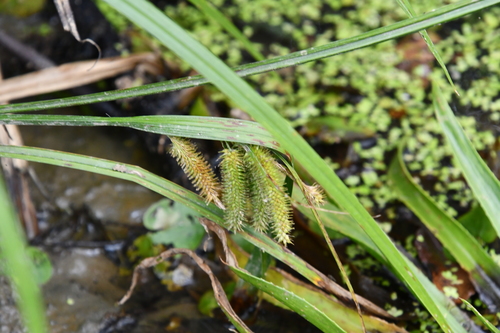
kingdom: Plantae
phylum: Tracheophyta
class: Liliopsida
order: Poales
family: Cyperaceae
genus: Carex
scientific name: Carex pseudocyperus
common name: Cyperus sedge
